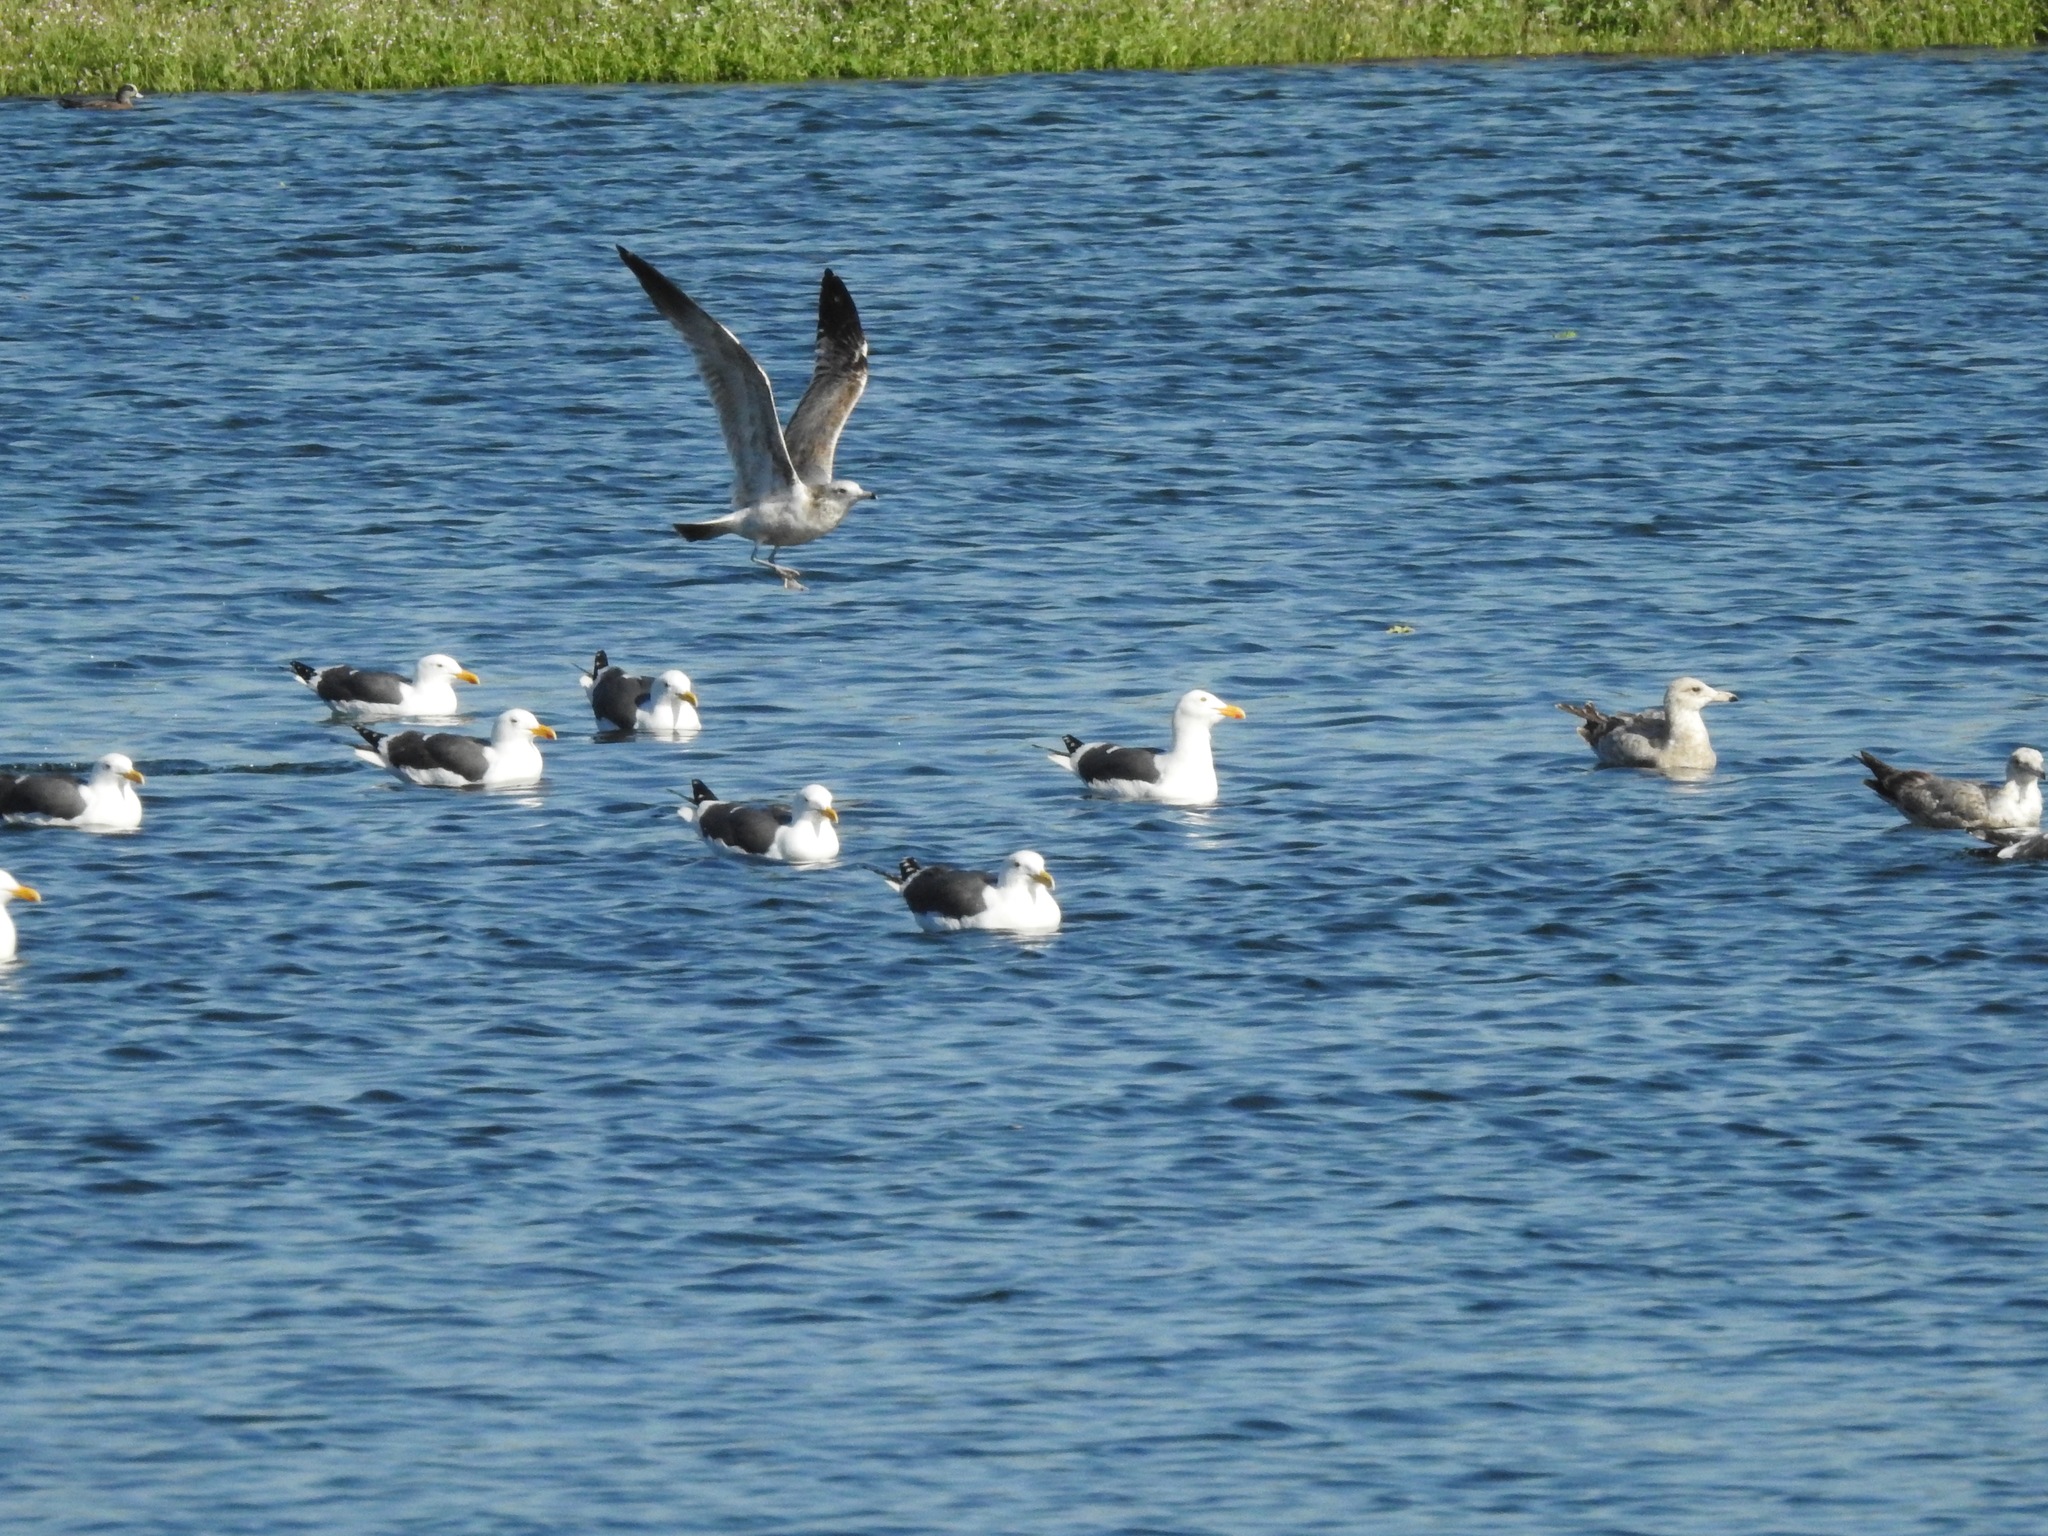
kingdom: Animalia
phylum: Chordata
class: Aves
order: Charadriiformes
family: Laridae
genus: Larus
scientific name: Larus occidentalis
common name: Western gull
